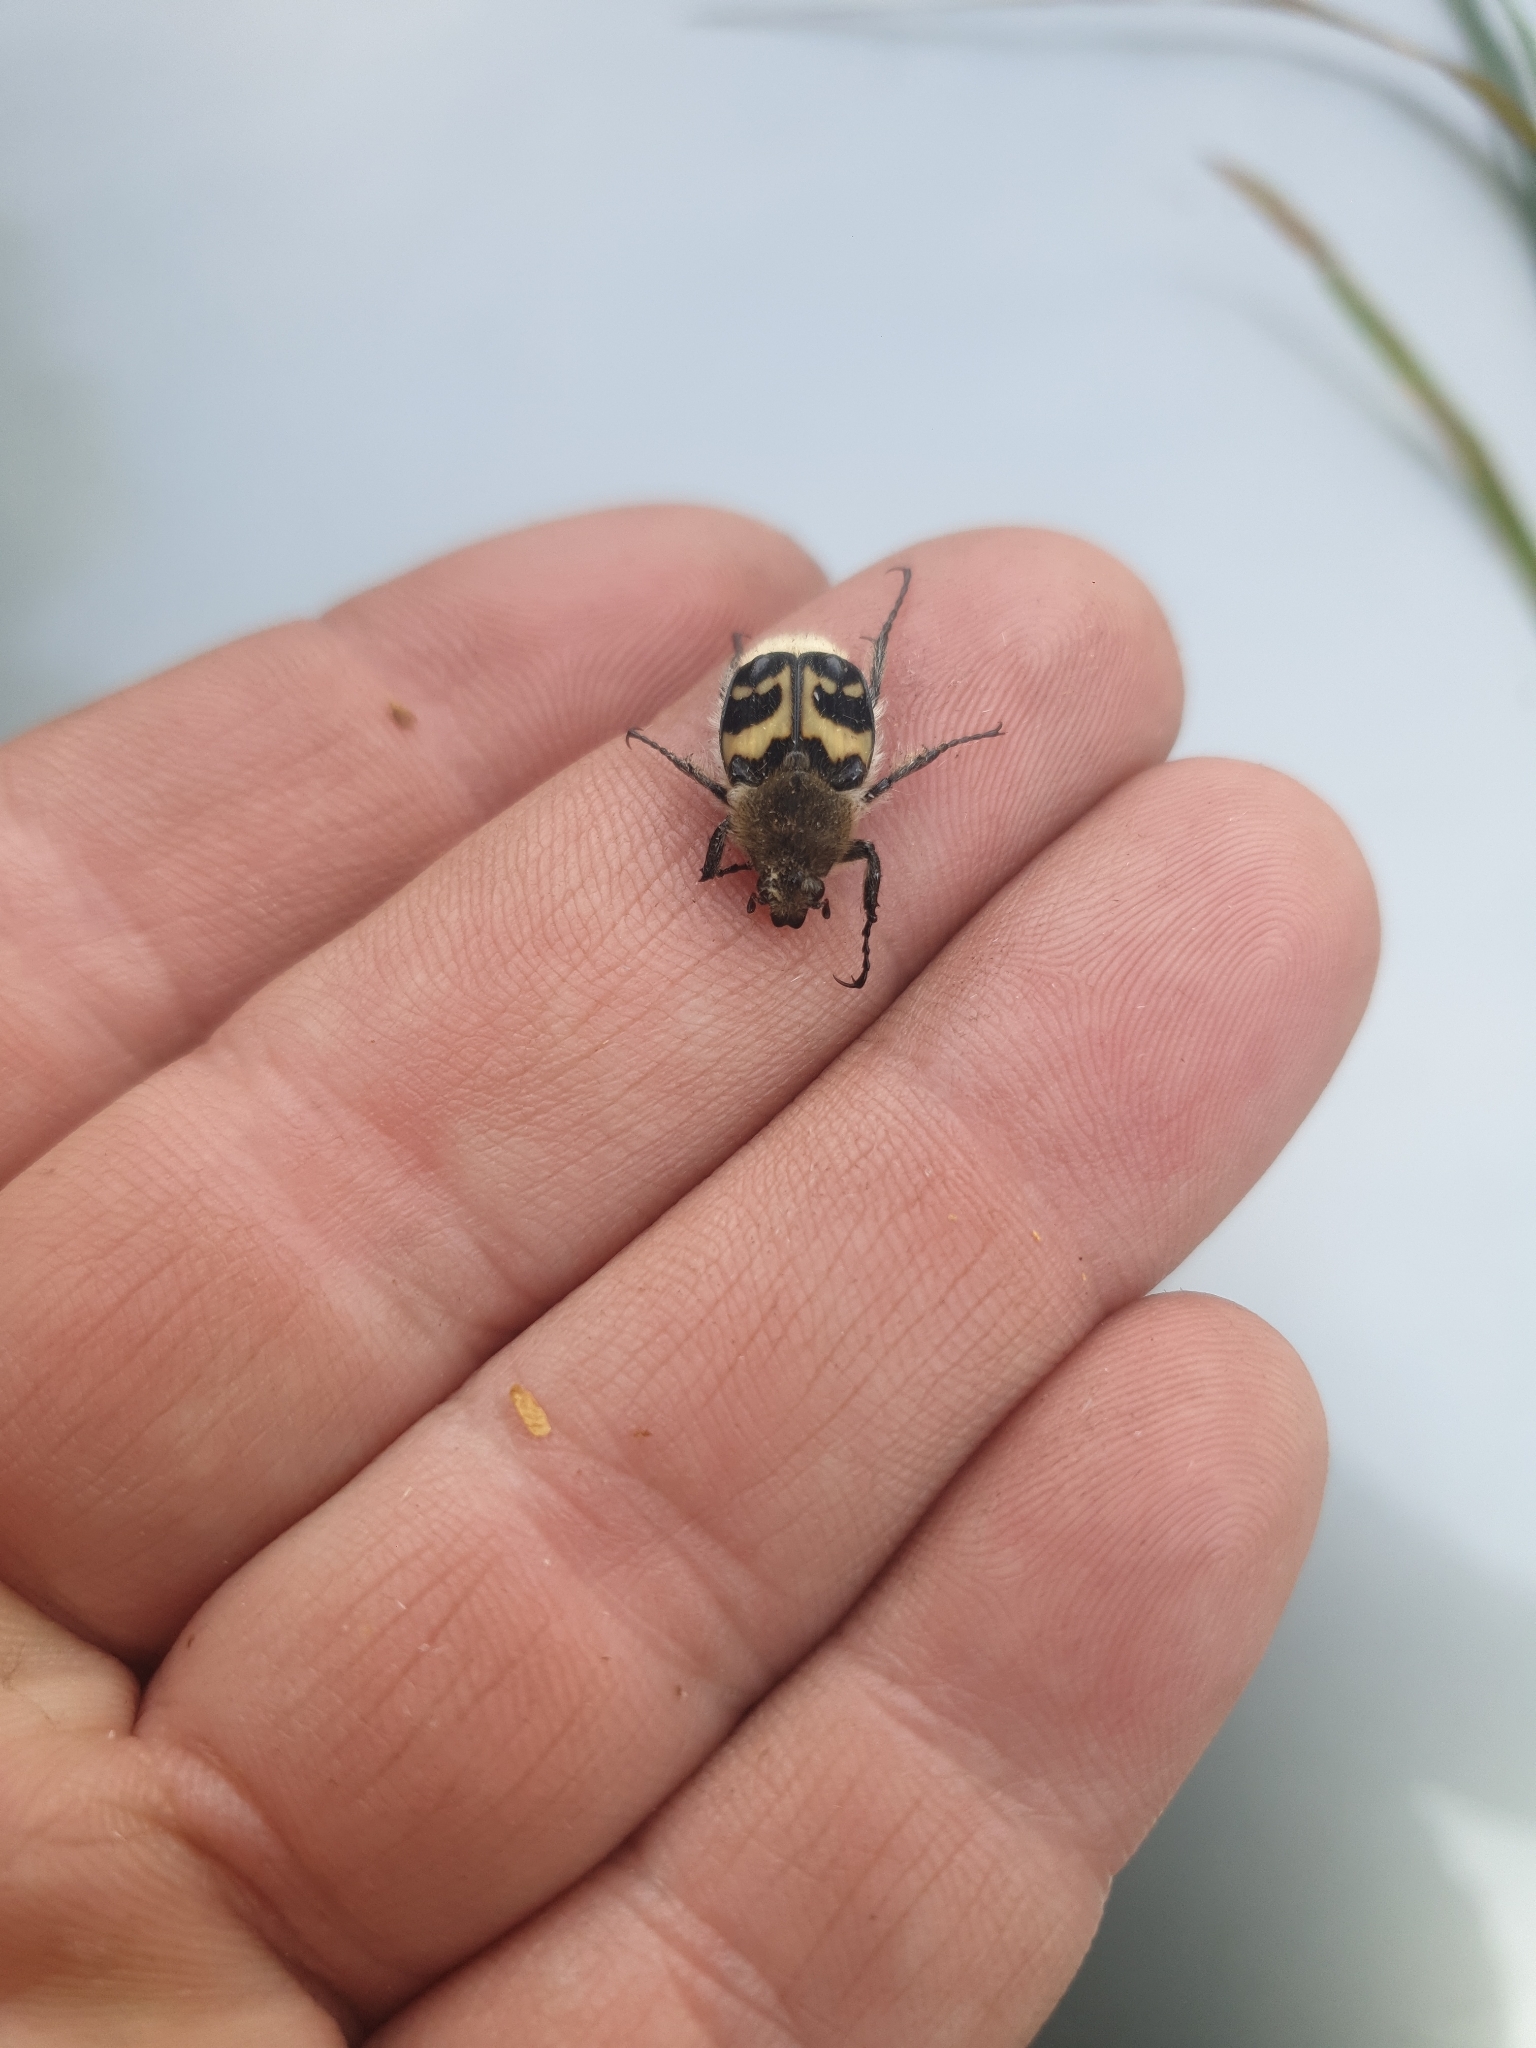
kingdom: Animalia
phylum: Arthropoda
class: Insecta
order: Coleoptera
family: Scarabaeidae
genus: Trichius
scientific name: Trichius fasciatus
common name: Bee beetle
